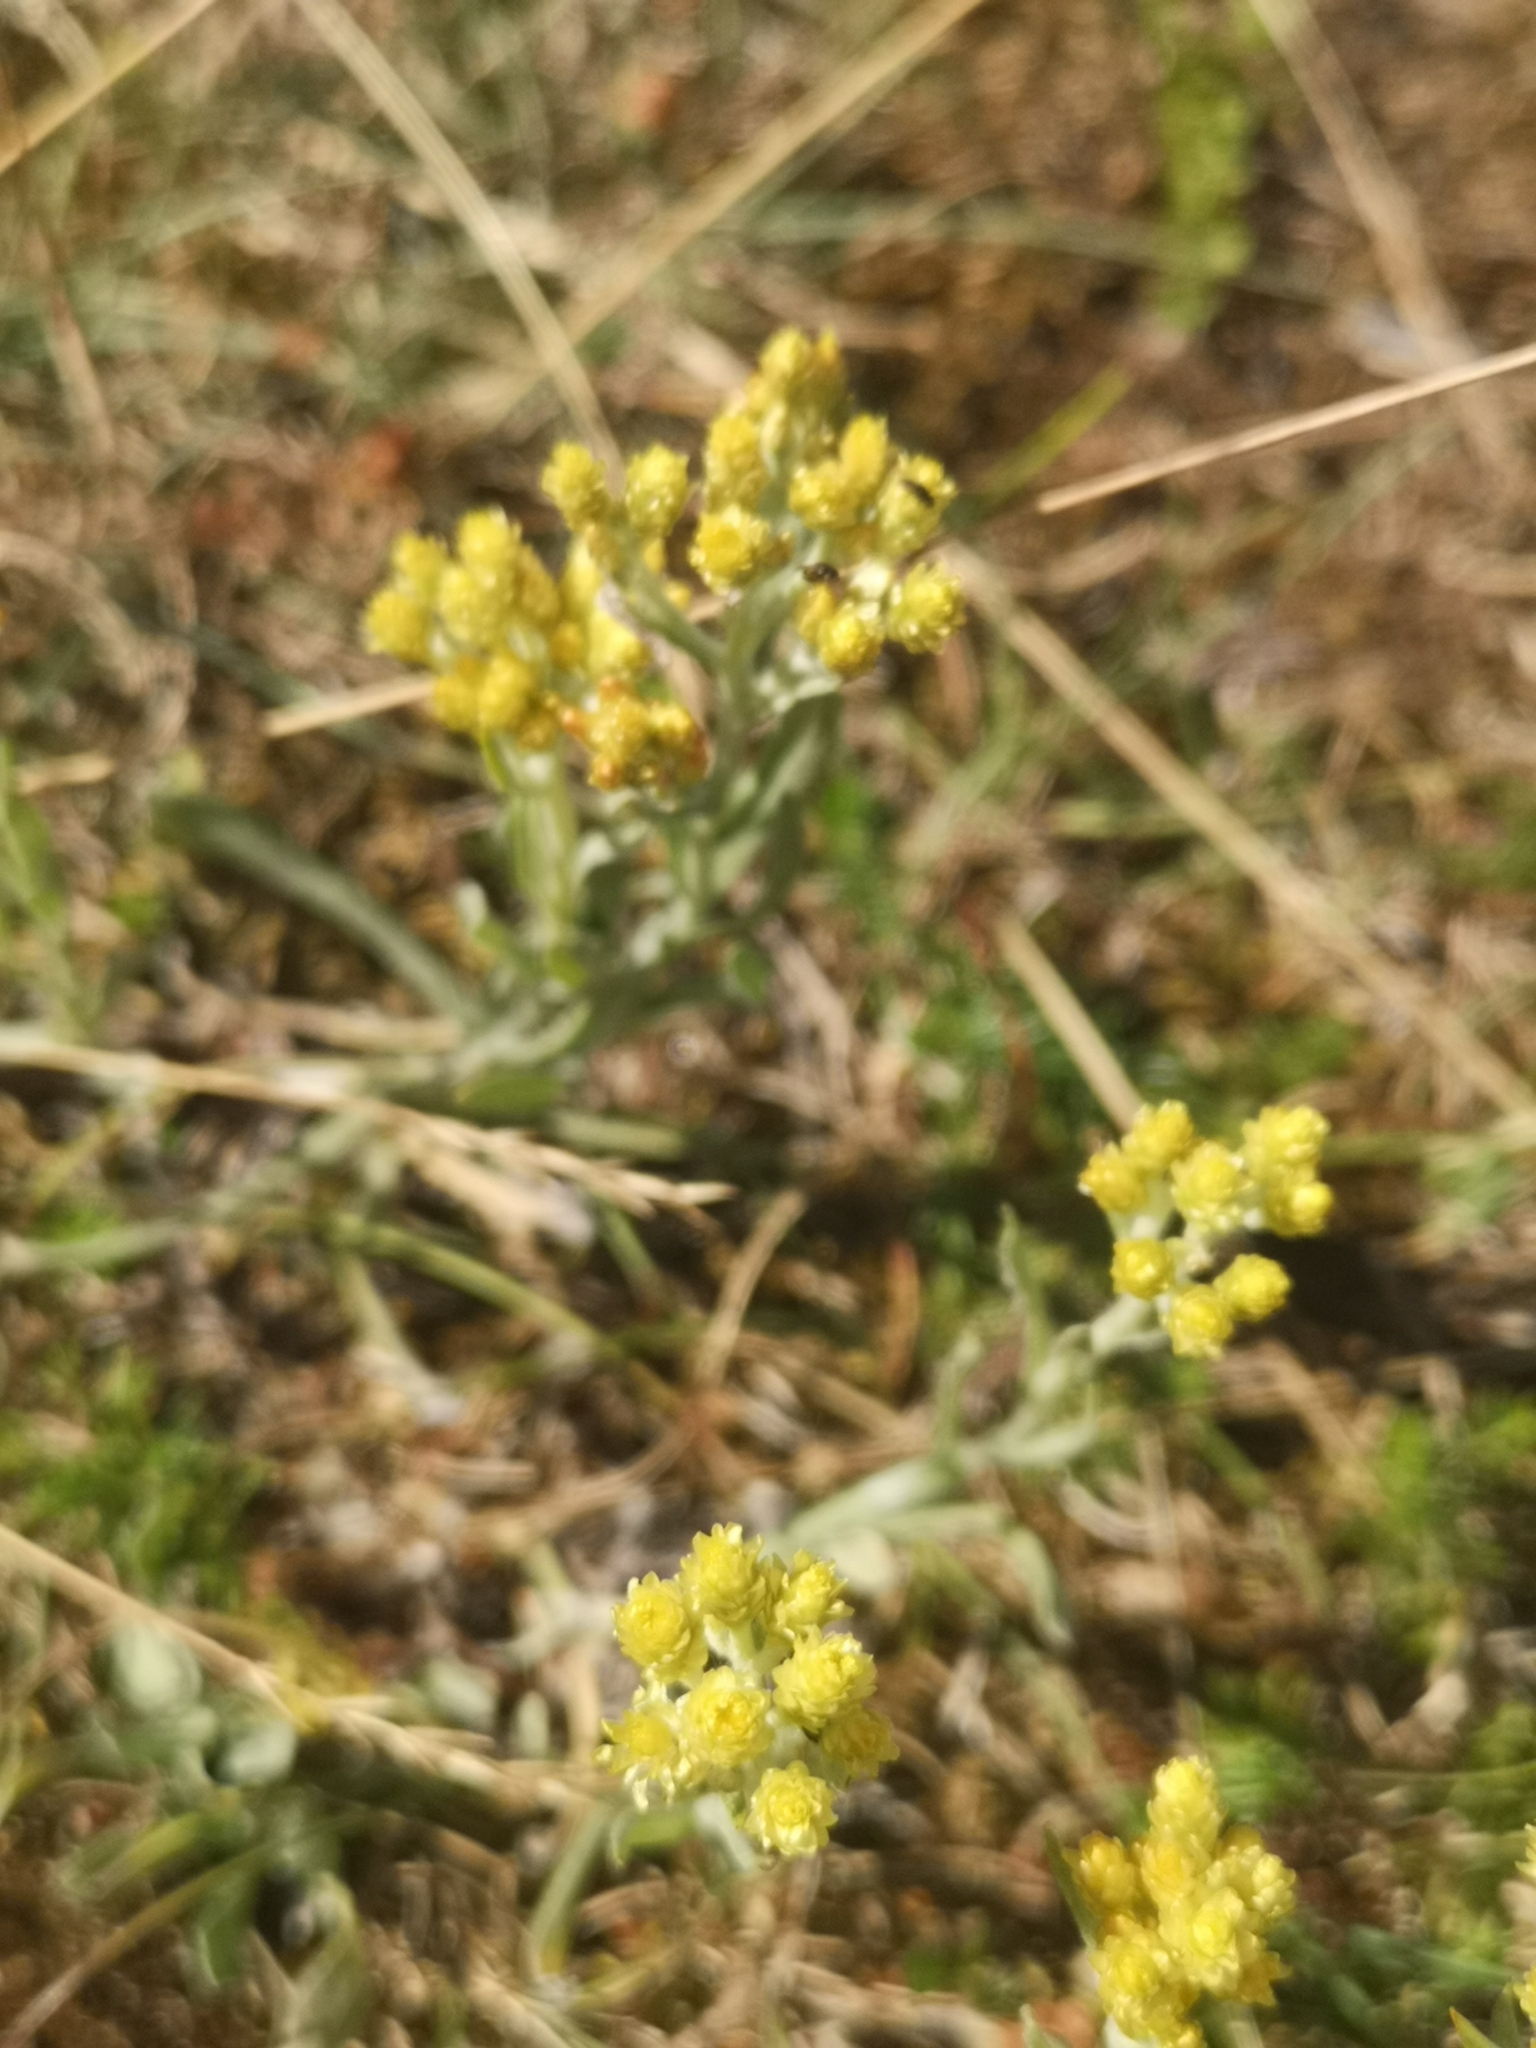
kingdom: Plantae
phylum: Tracheophyta
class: Magnoliopsida
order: Asterales
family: Asteraceae
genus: Helichrysum
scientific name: Helichrysum arenarium
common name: Strawflower
